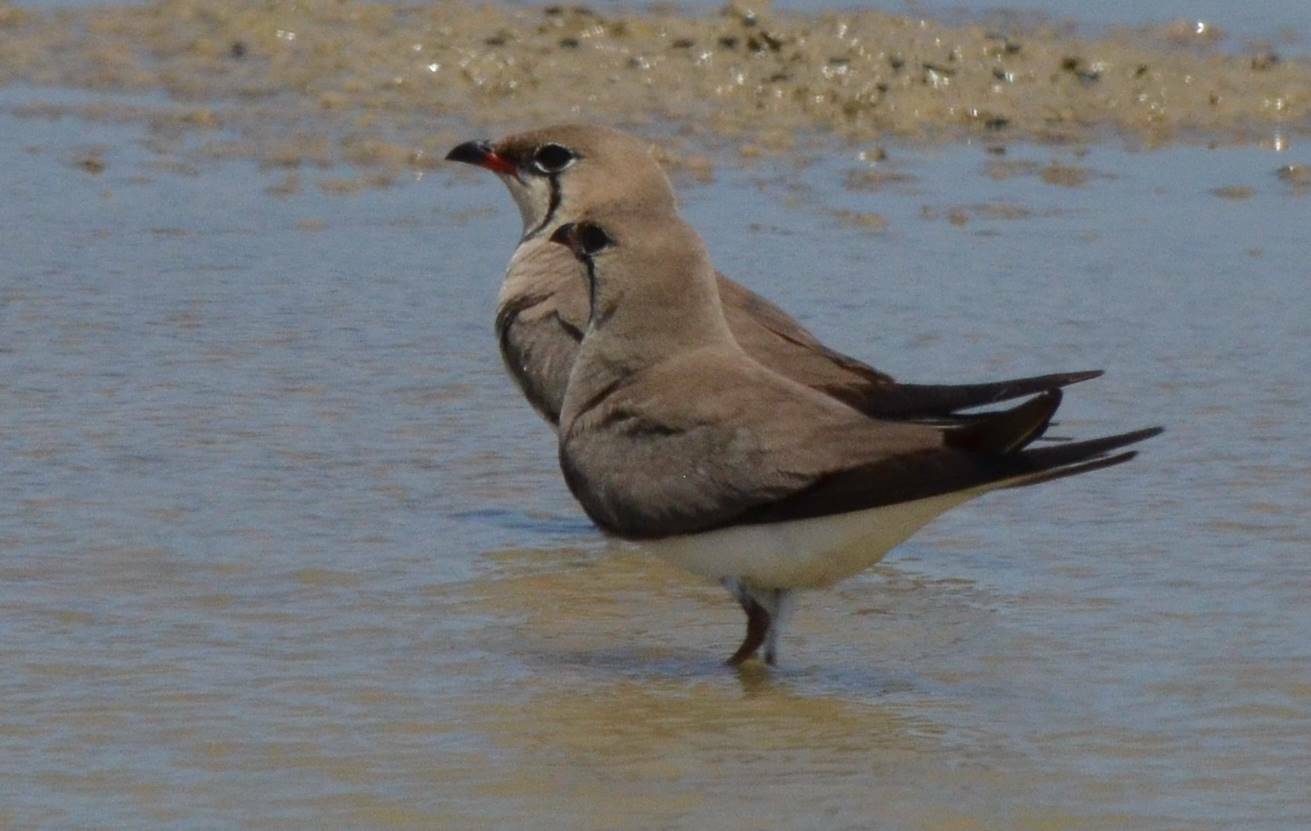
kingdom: Animalia
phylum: Chordata
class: Aves
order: Charadriiformes
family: Glareolidae
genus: Glareola
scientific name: Glareola pratincola
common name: Collared pratincole
